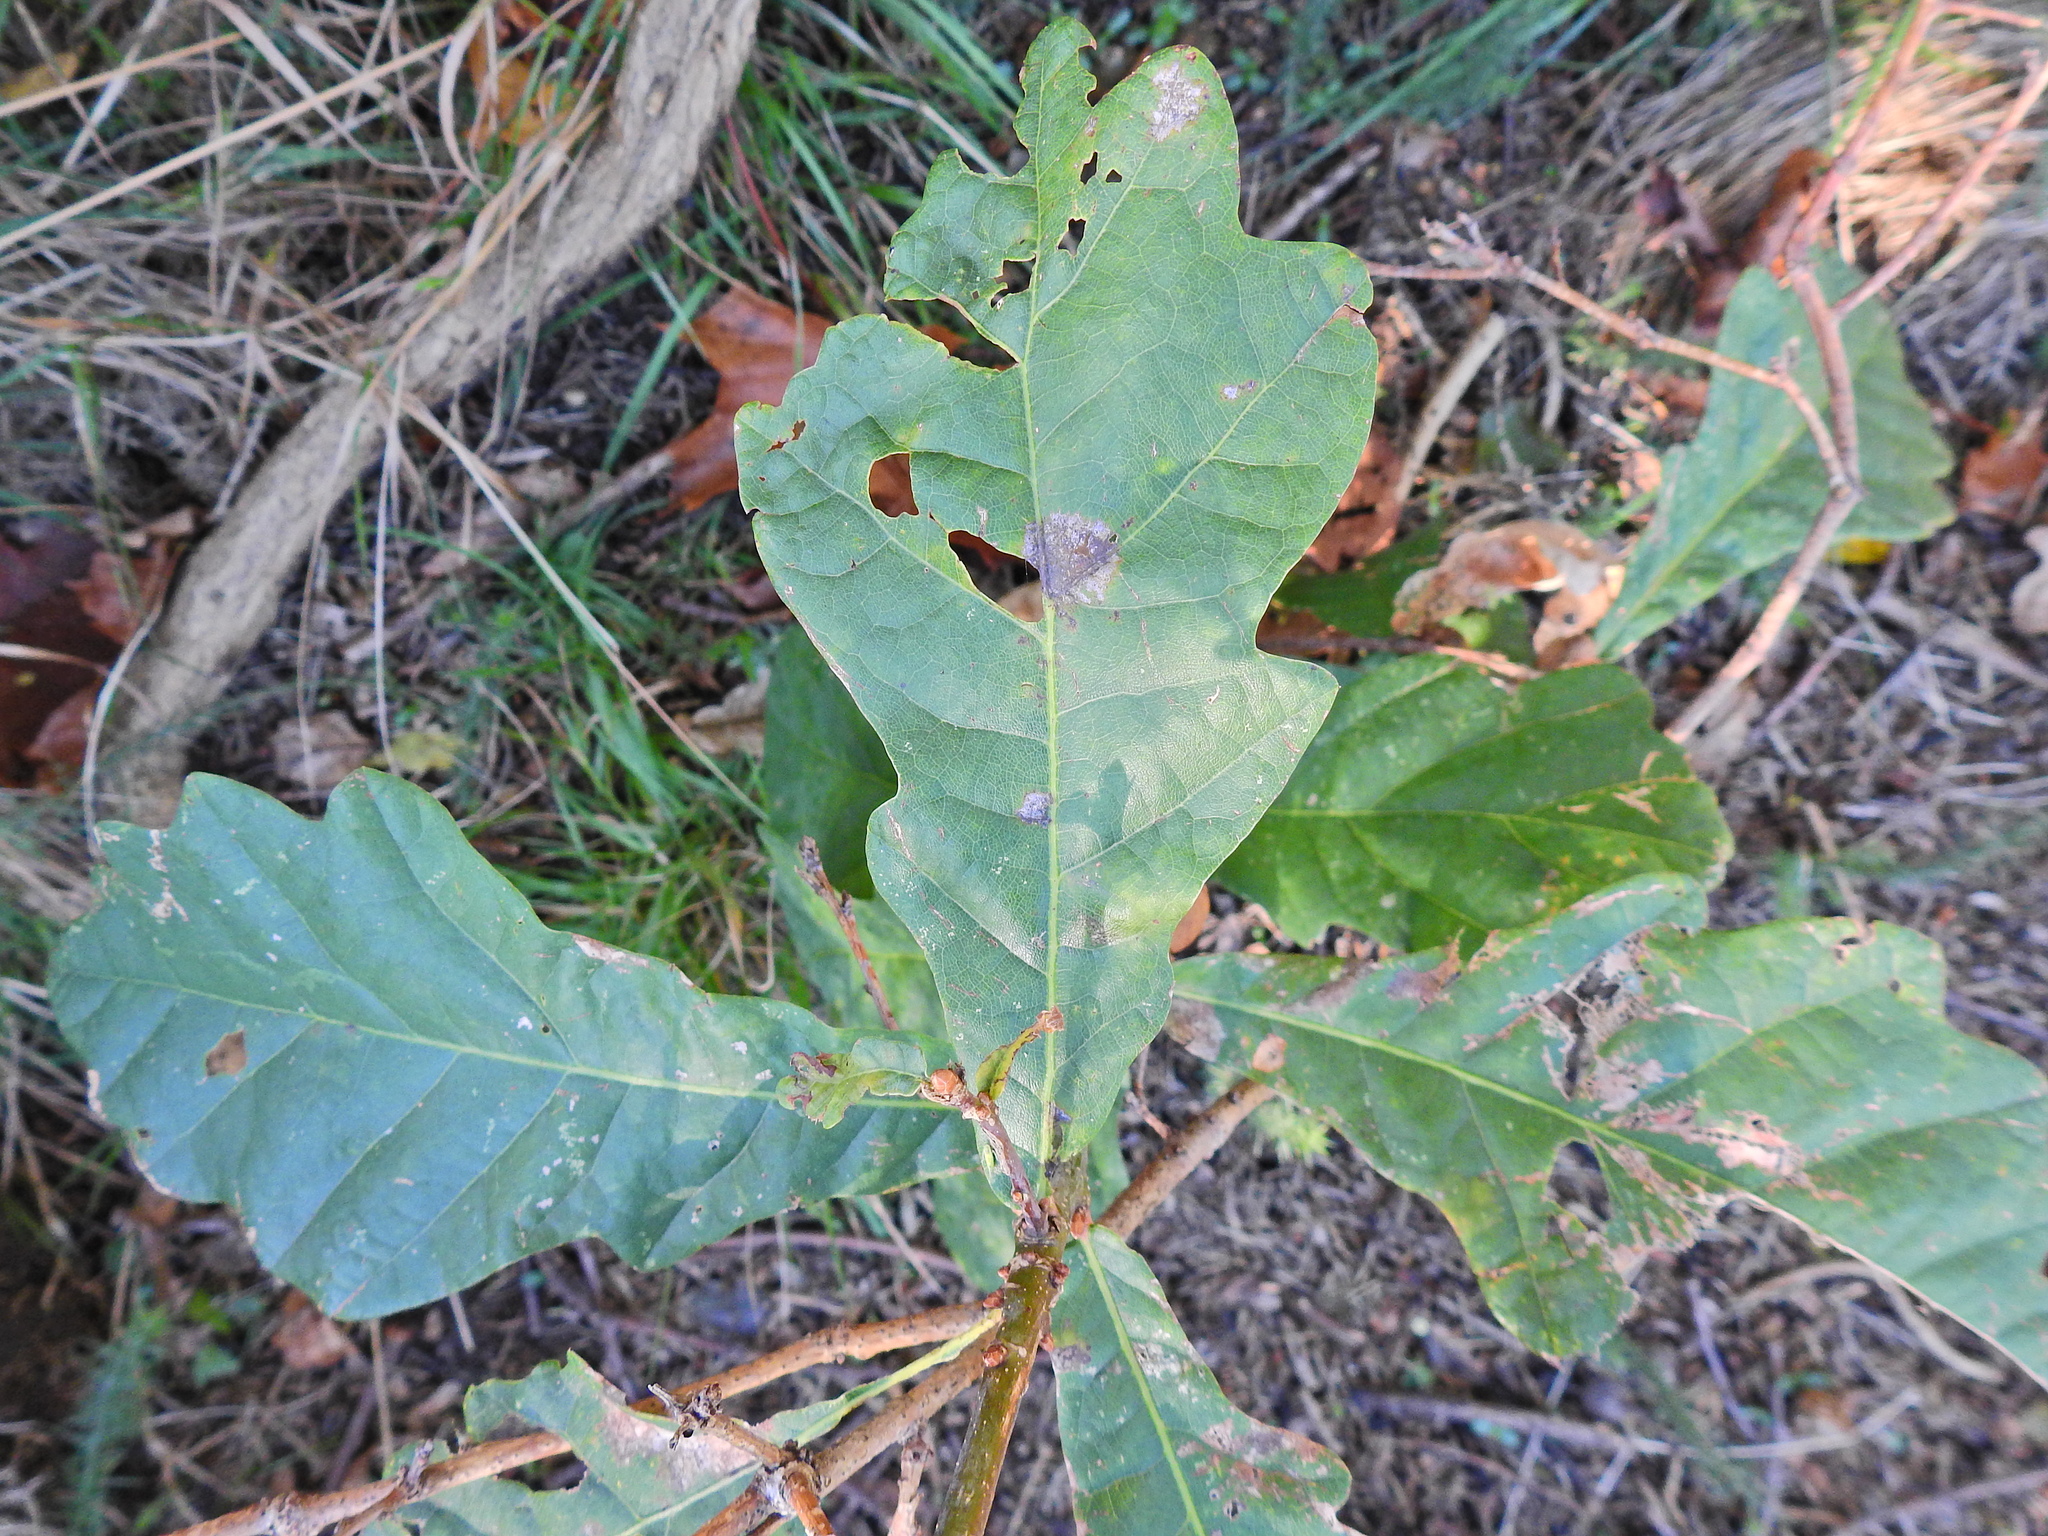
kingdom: Plantae
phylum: Tracheophyta
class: Magnoliopsida
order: Fagales
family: Fagaceae
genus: Quercus
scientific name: Quercus robur
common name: Pedunculate oak
